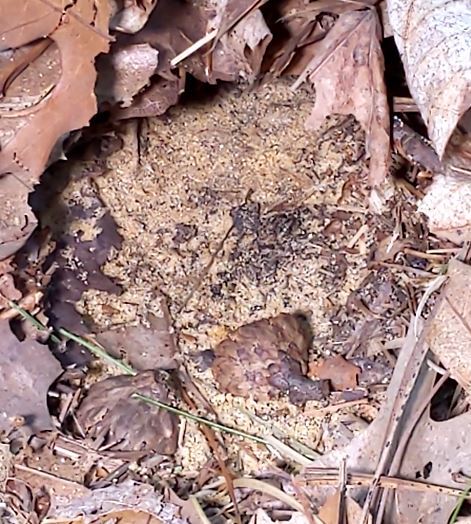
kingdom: Animalia
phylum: Arthropoda
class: Insecta
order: Hymenoptera
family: Vespidae
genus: Vespula
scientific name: Vespula maculifrons
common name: Eastern yellowjacket
